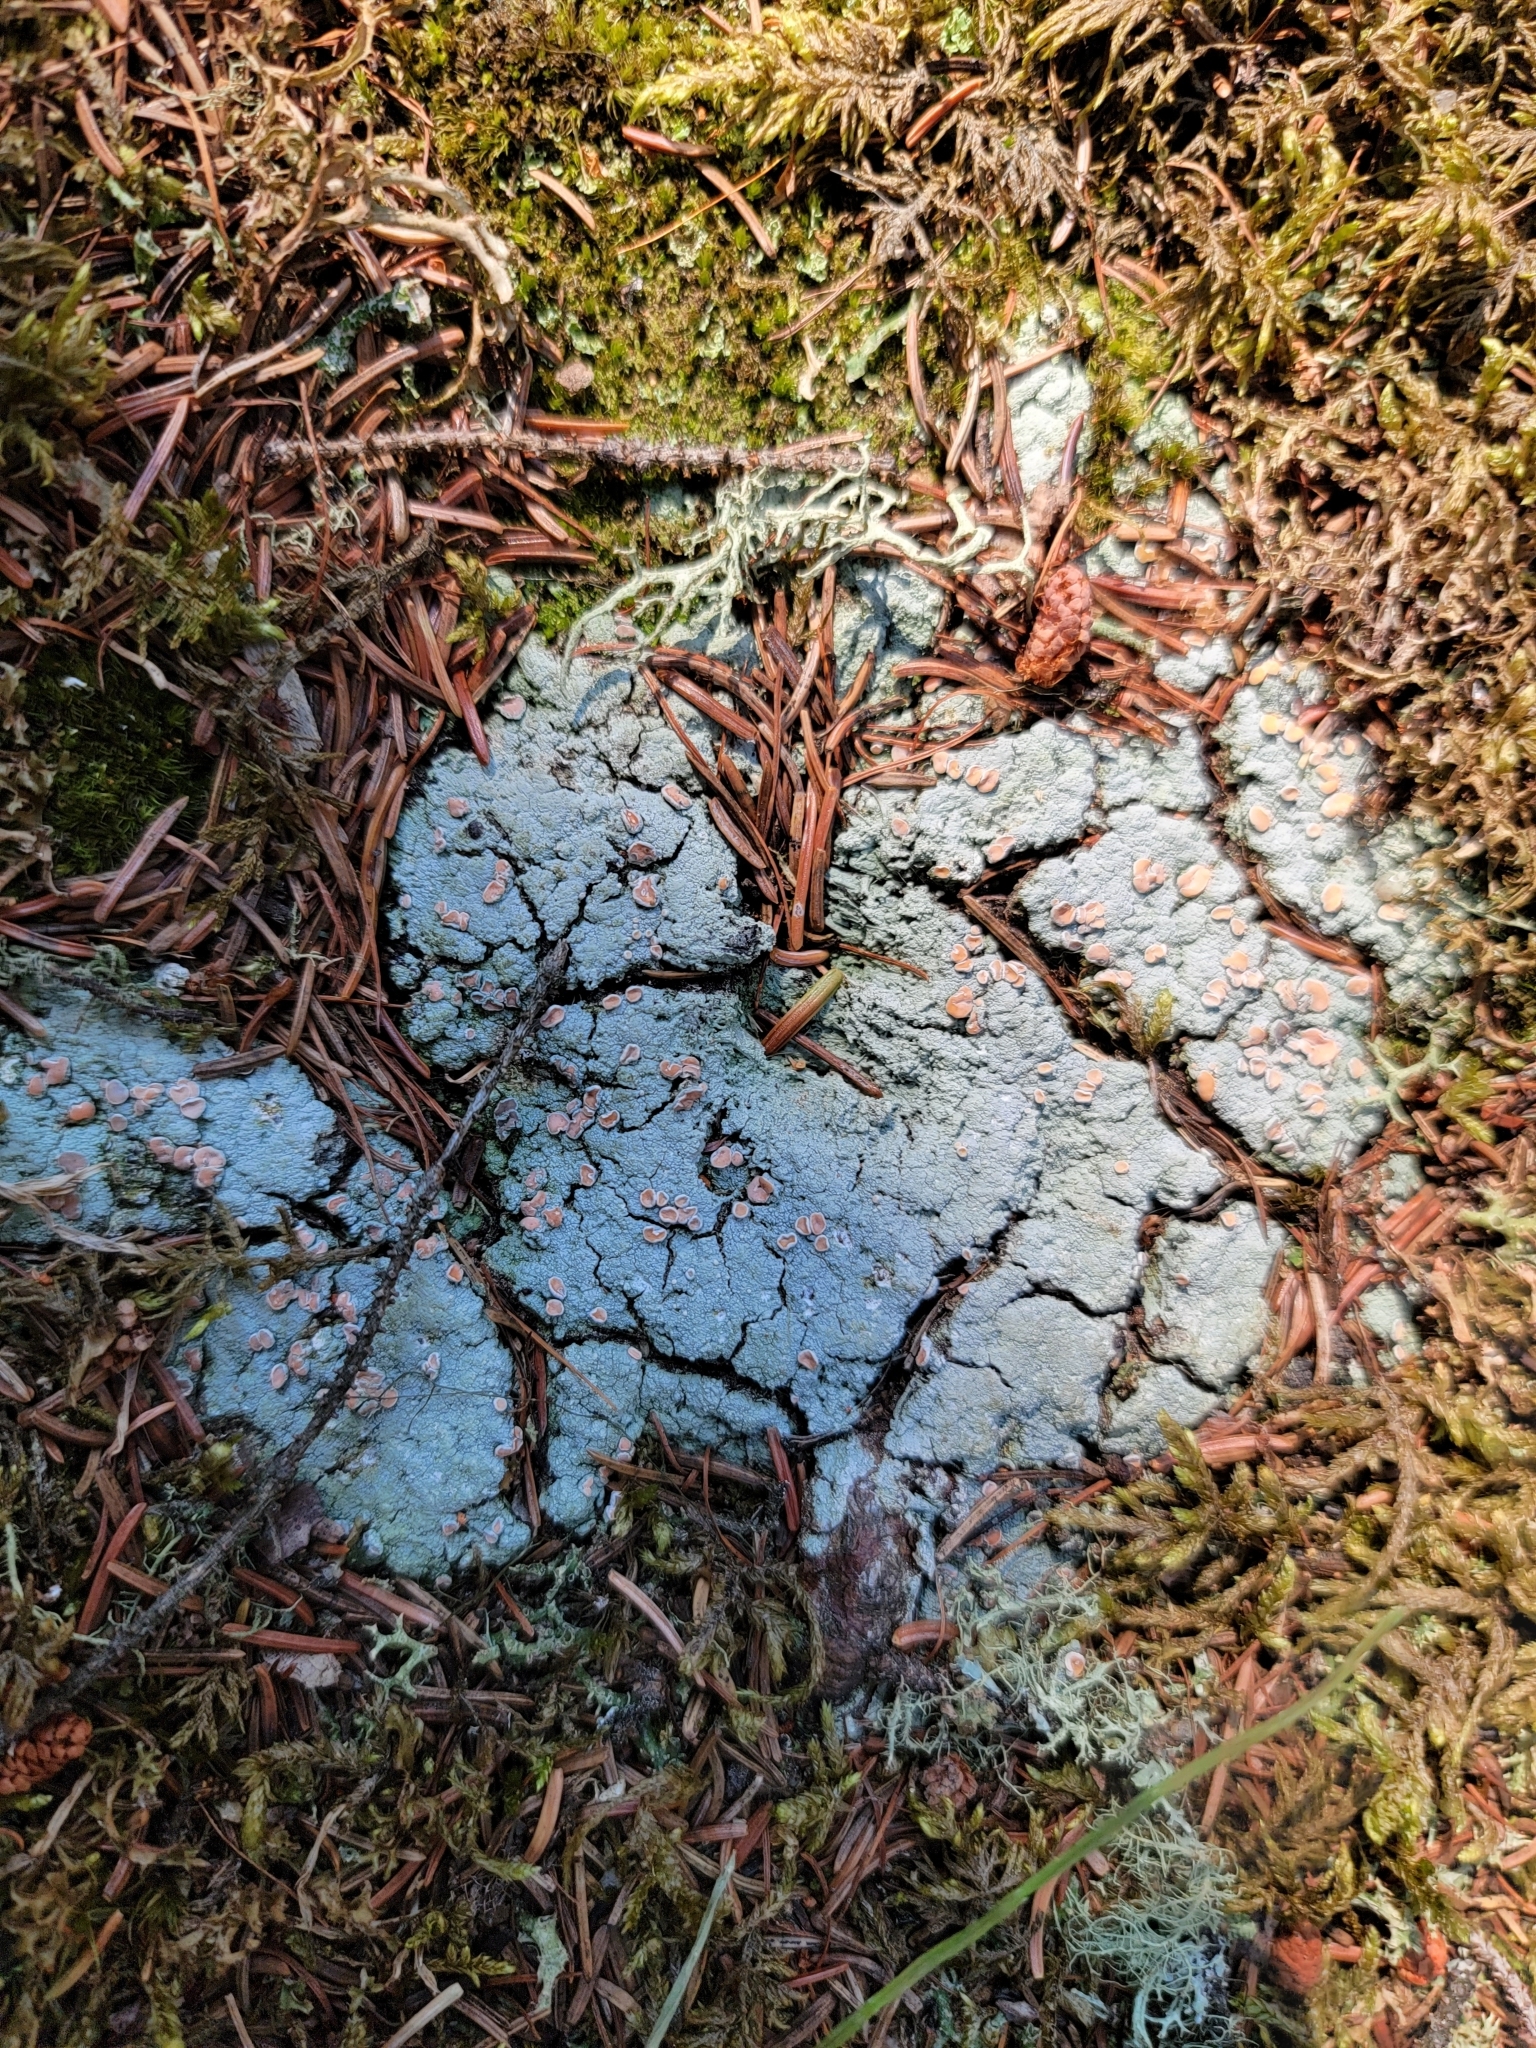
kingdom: Fungi
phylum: Ascomycota
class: Lecanoromycetes
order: Pertusariales
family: Icmadophilaceae
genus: Icmadophila
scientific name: Icmadophila ericetorum
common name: Candy lichen
